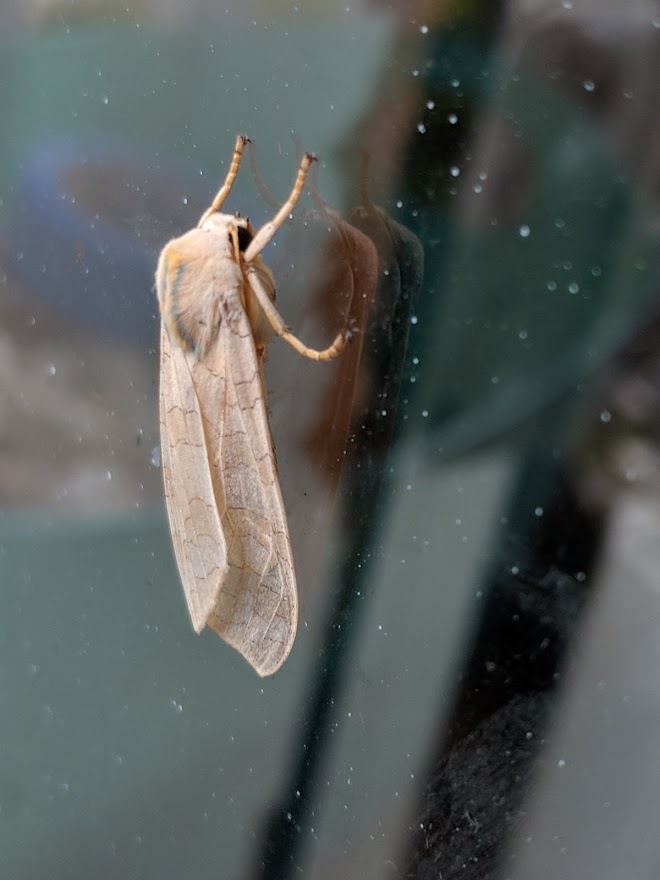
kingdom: Animalia
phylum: Arthropoda
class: Insecta
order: Lepidoptera
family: Erebidae
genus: Halysidota
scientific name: Halysidota
